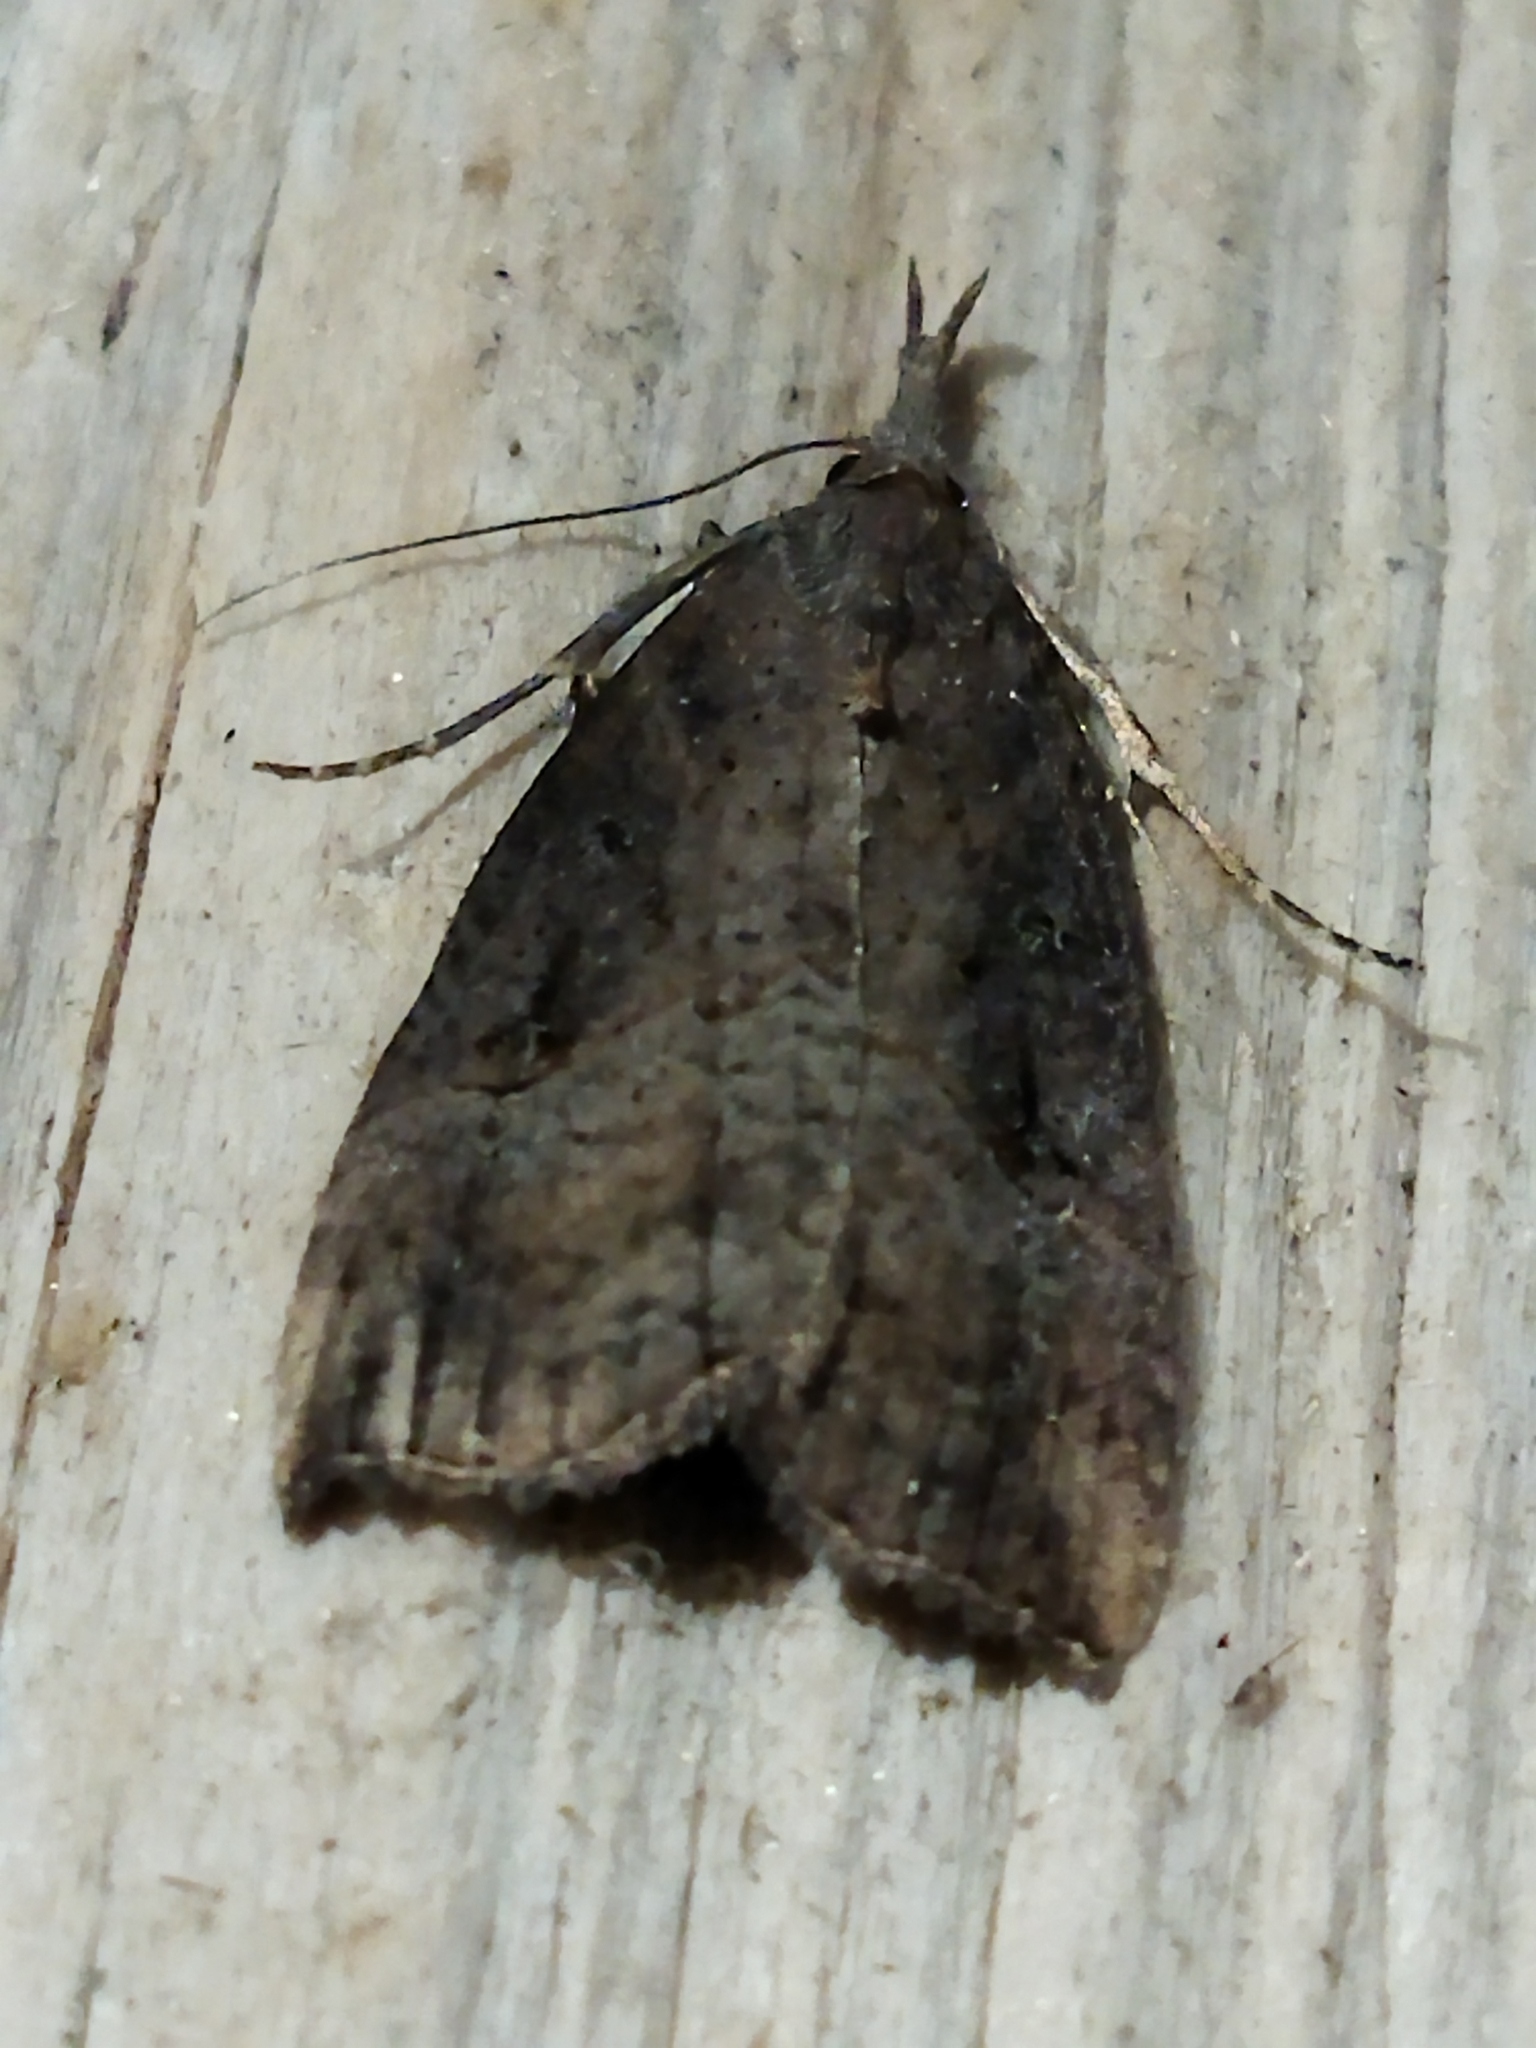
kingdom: Animalia
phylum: Arthropoda
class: Insecta
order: Lepidoptera
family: Erebidae
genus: Hypena
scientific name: Hypena rostralis
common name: Buttoned snout
